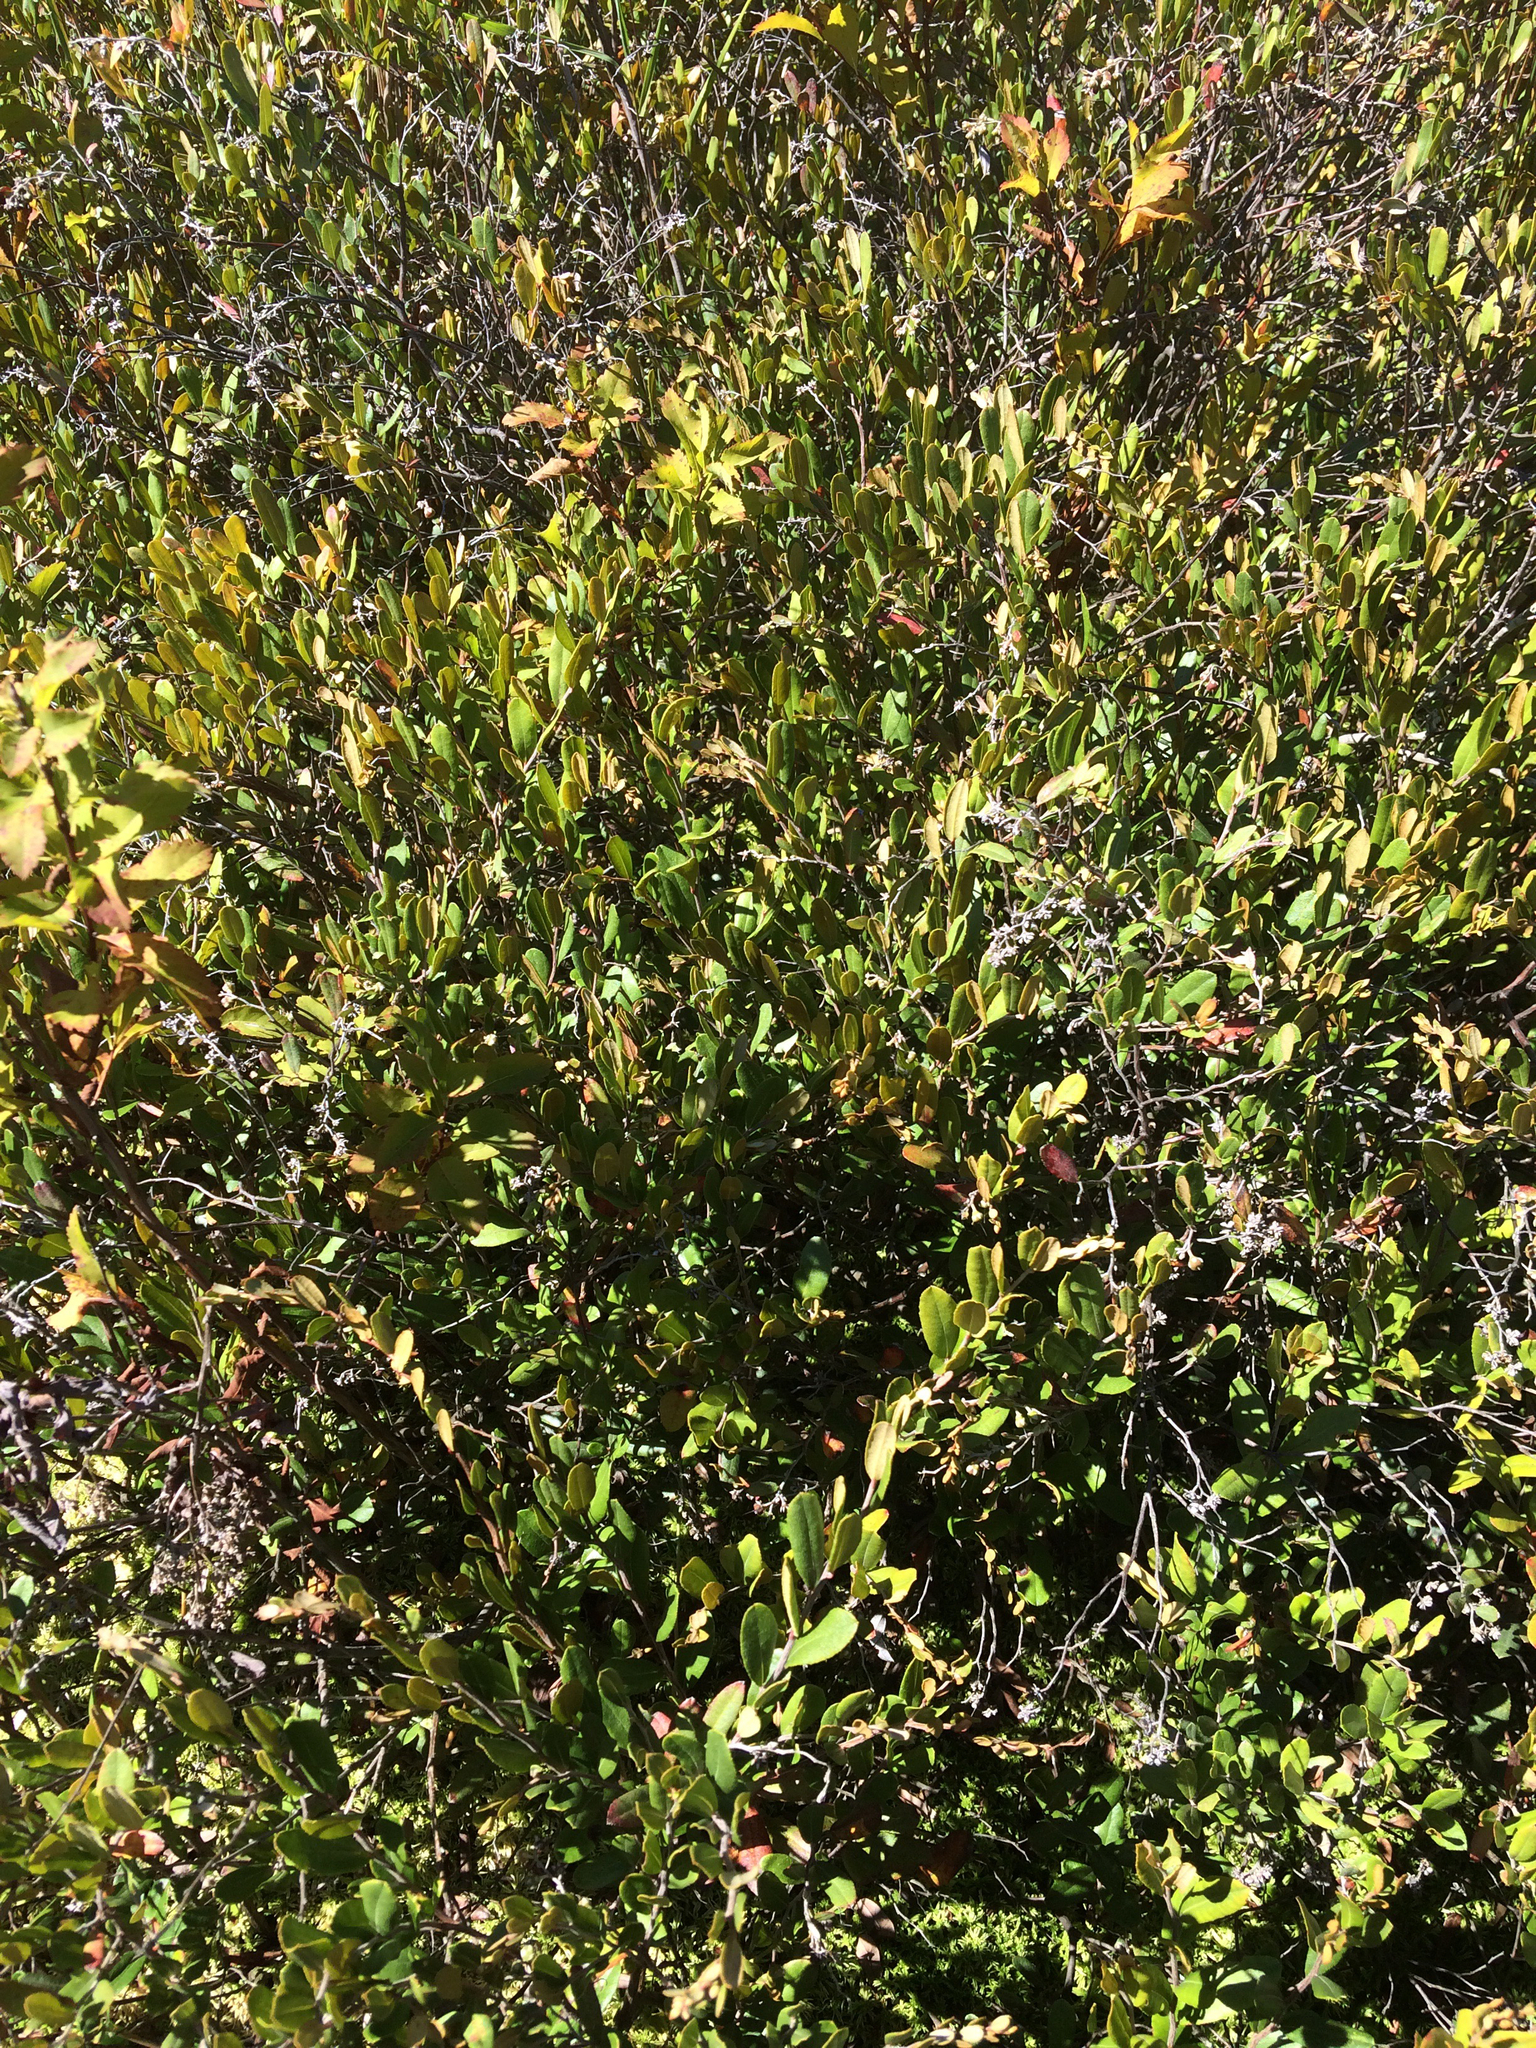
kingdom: Plantae
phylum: Tracheophyta
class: Magnoliopsida
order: Ericales
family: Ericaceae
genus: Chamaedaphne
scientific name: Chamaedaphne calyculata
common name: Leatherleaf
